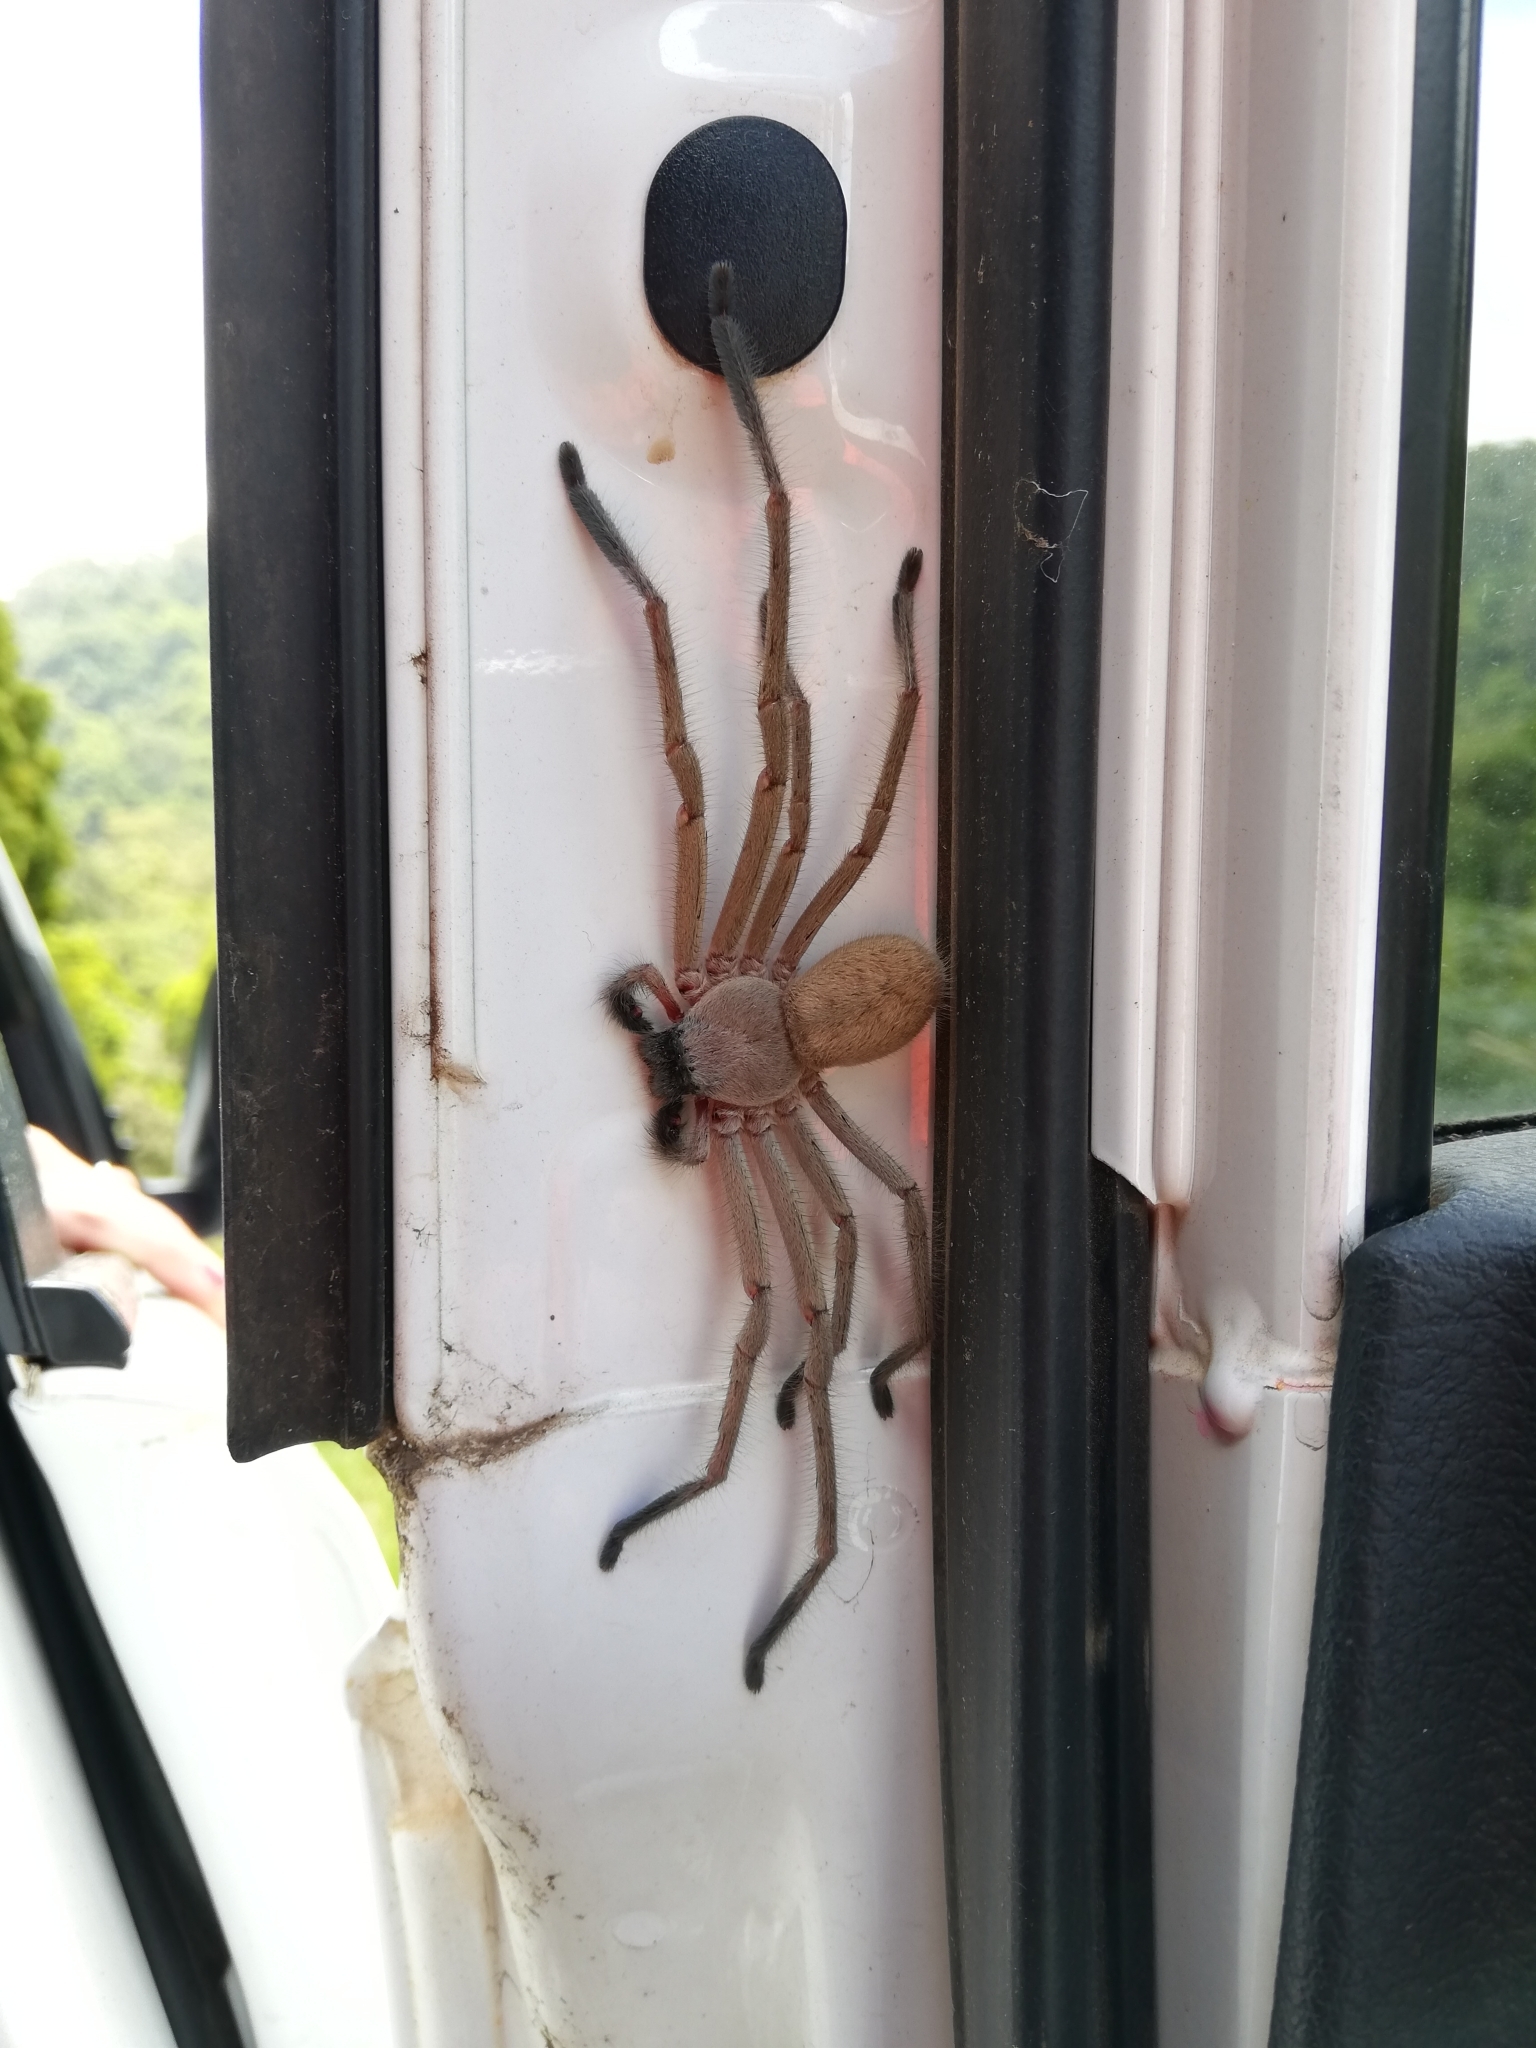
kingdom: Animalia
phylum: Arthropoda
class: Arachnida
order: Araneae
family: Sparassidae
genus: Delena
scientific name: Delena cancerides
